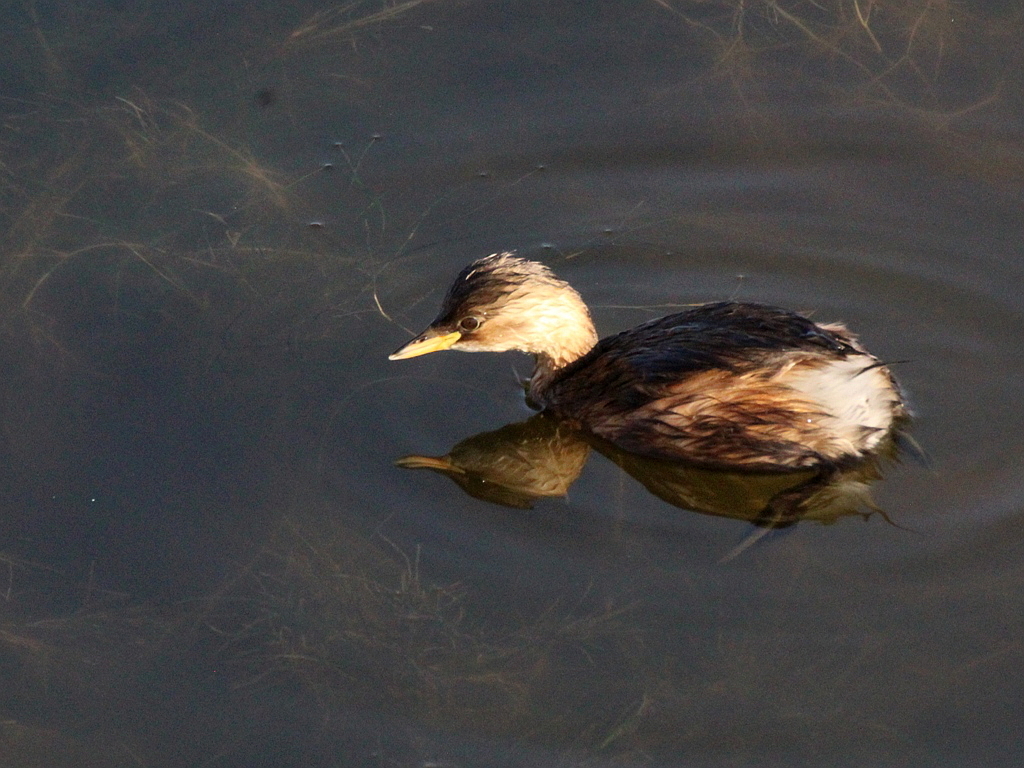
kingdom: Animalia
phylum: Chordata
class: Aves
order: Podicipediformes
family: Podicipedidae
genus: Tachybaptus
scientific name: Tachybaptus ruficollis
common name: Little grebe
